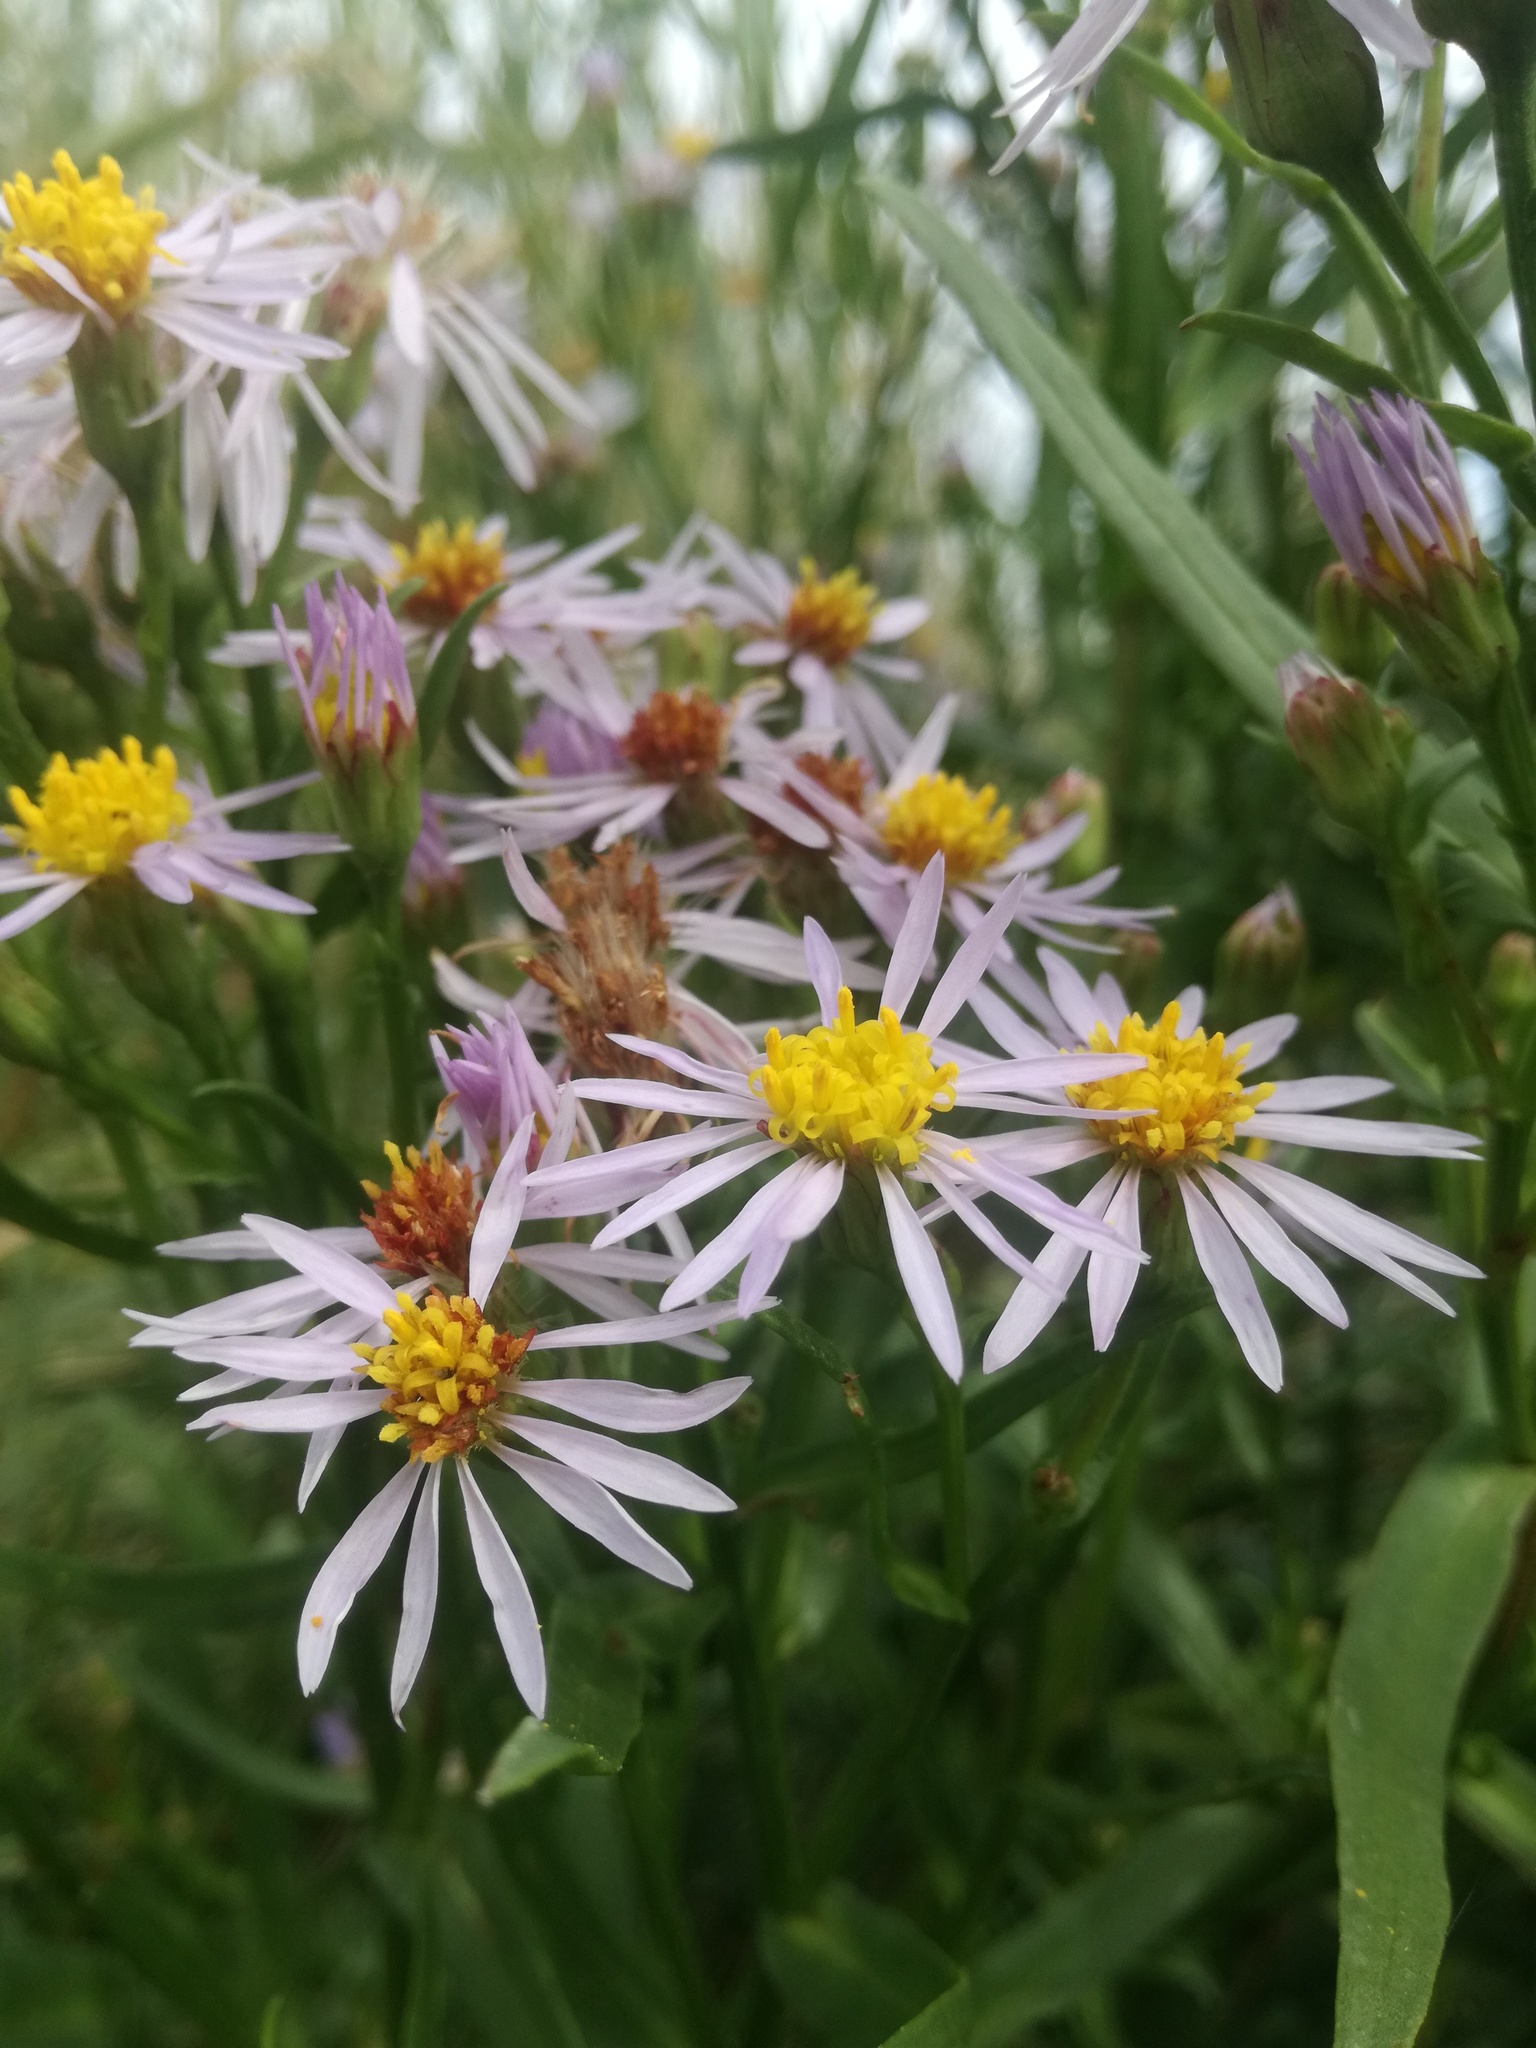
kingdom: Plantae
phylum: Tracheophyta
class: Magnoliopsida
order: Asterales
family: Asteraceae
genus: Tripolium
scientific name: Tripolium pannonicum
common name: Sea aster
